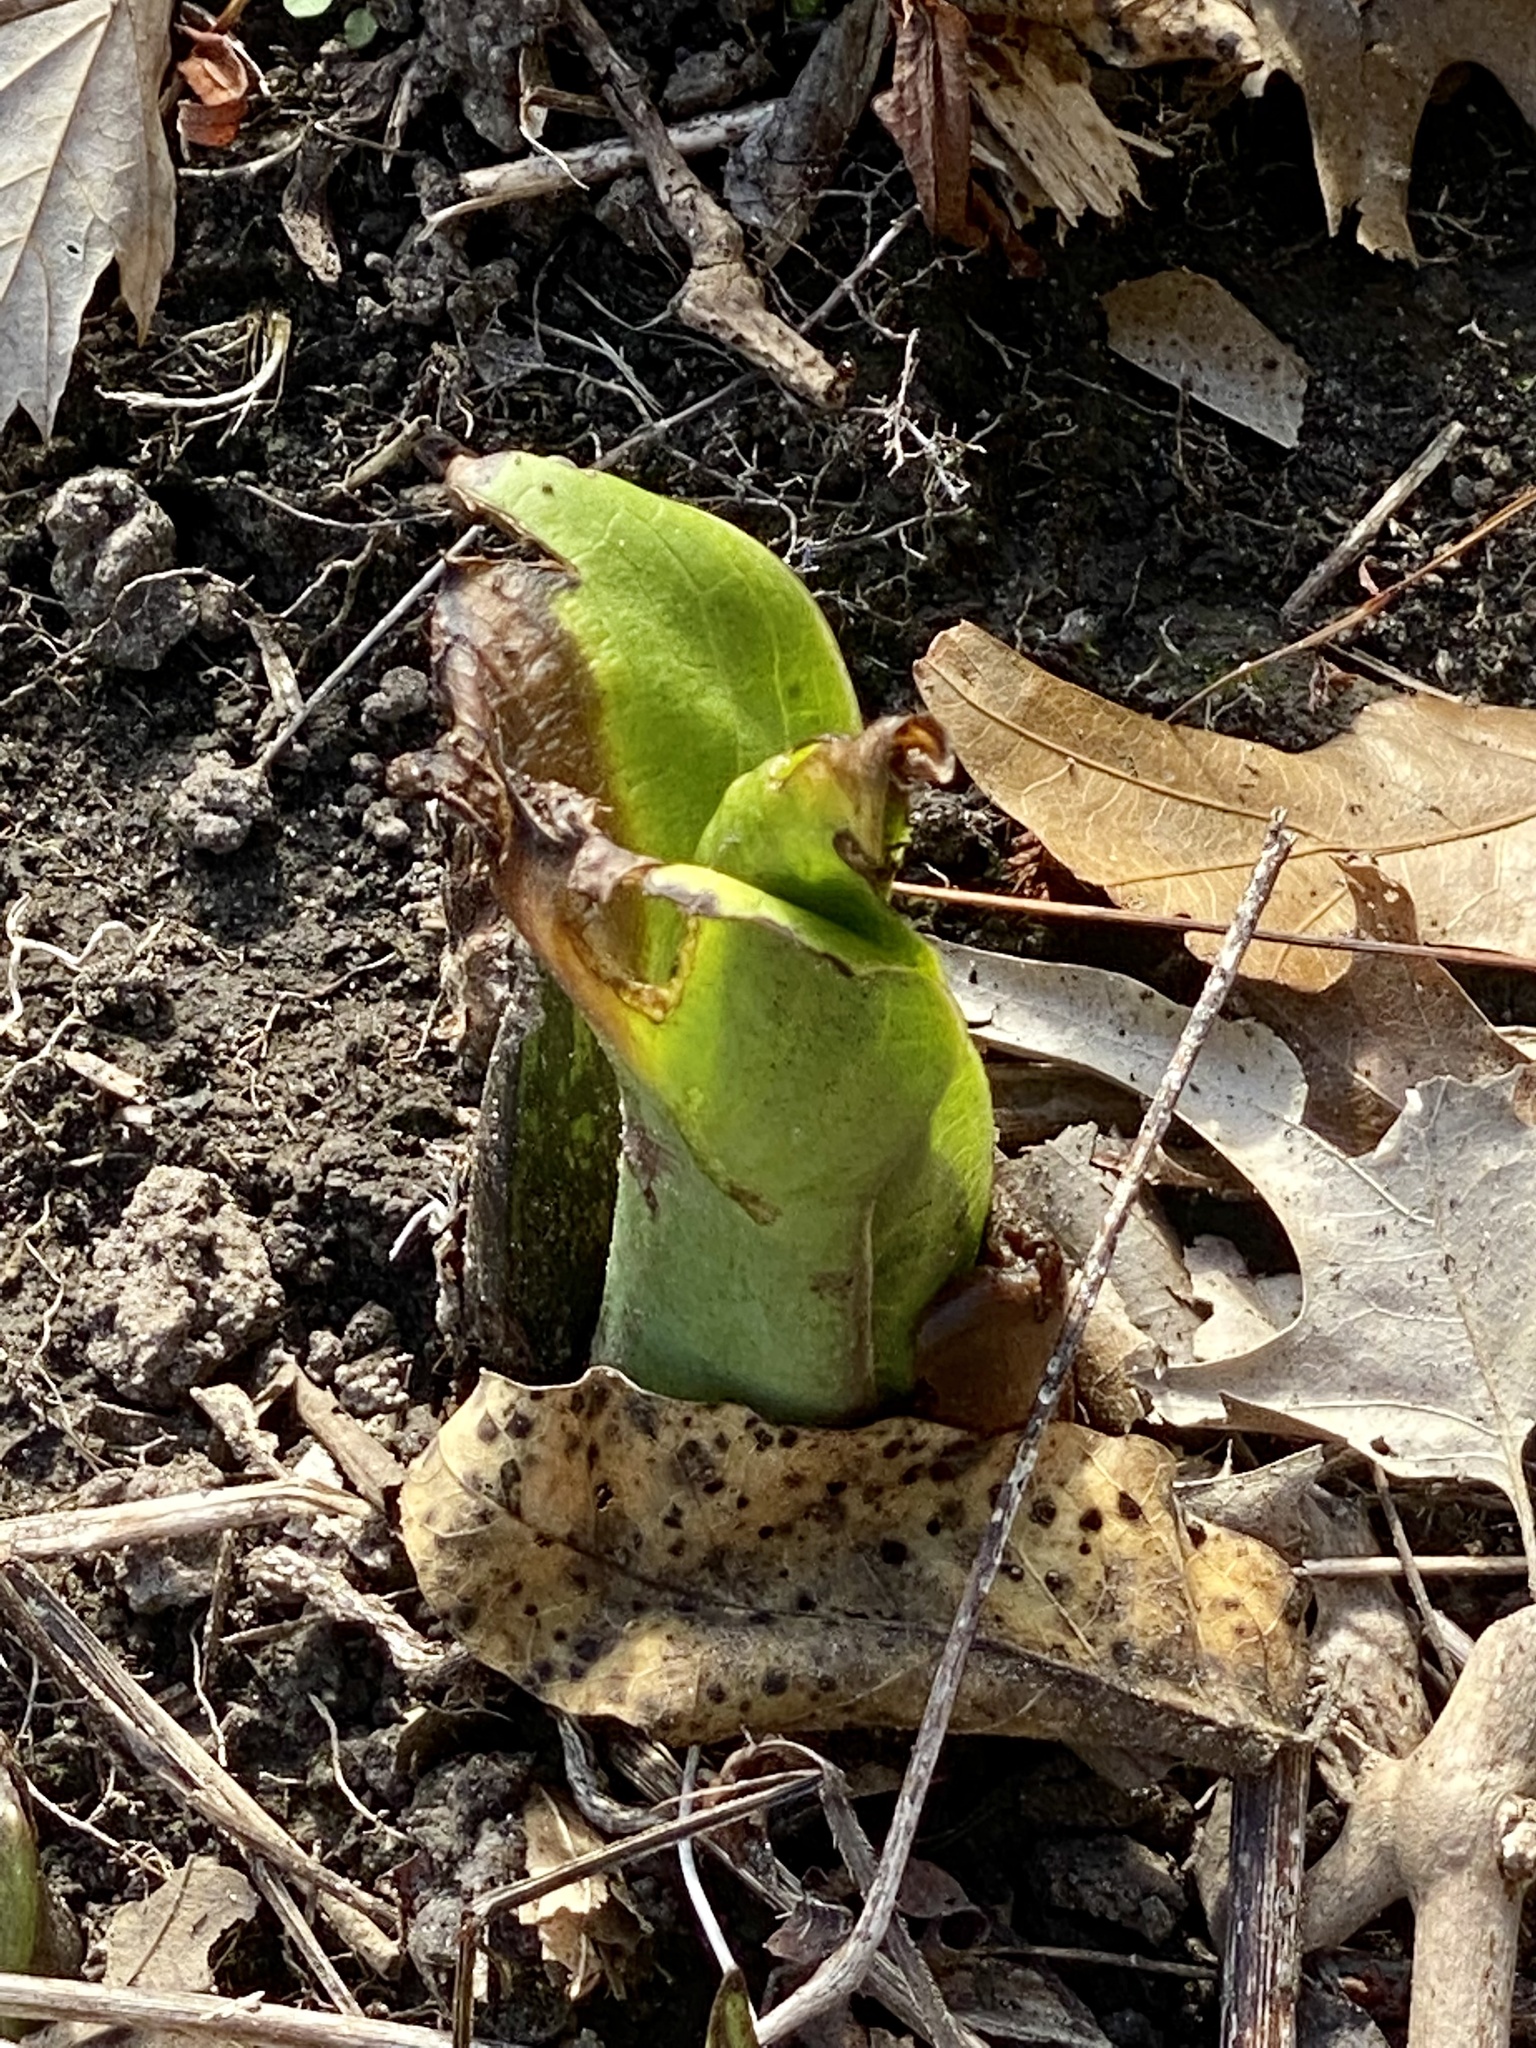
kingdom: Plantae
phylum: Tracheophyta
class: Liliopsida
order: Alismatales
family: Araceae
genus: Symplocarpus
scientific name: Symplocarpus foetidus
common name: Eastern skunk cabbage
